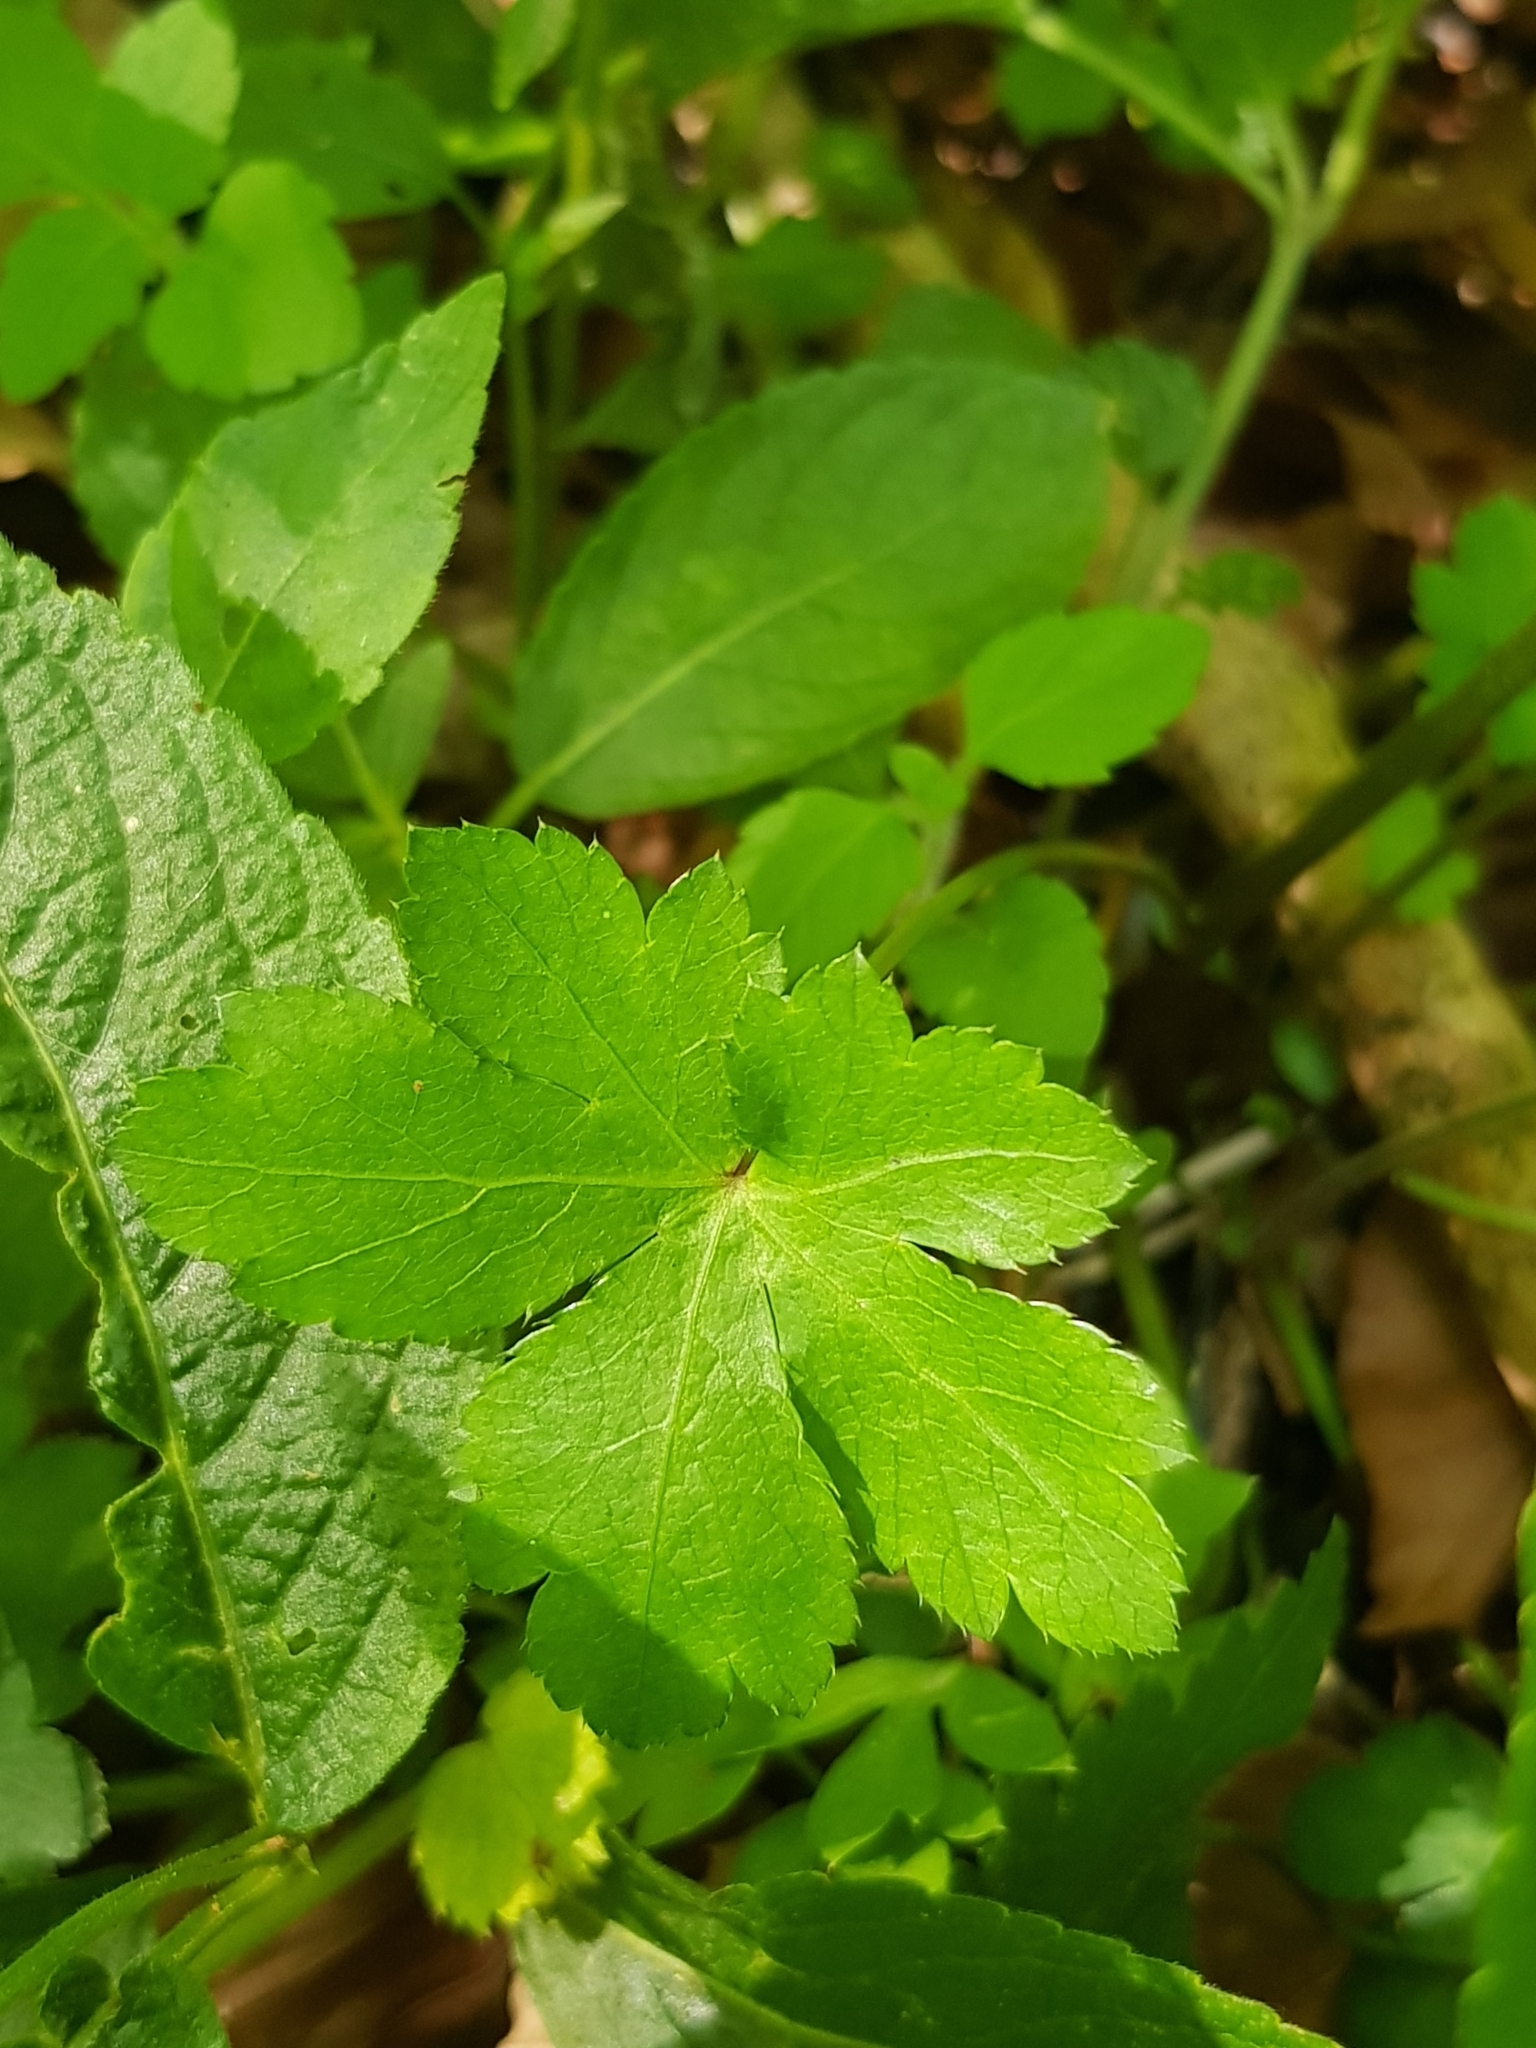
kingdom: Plantae
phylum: Tracheophyta
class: Magnoliopsida
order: Apiales
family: Apiaceae
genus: Sanicula
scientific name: Sanicula europaea
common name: Sanicle
